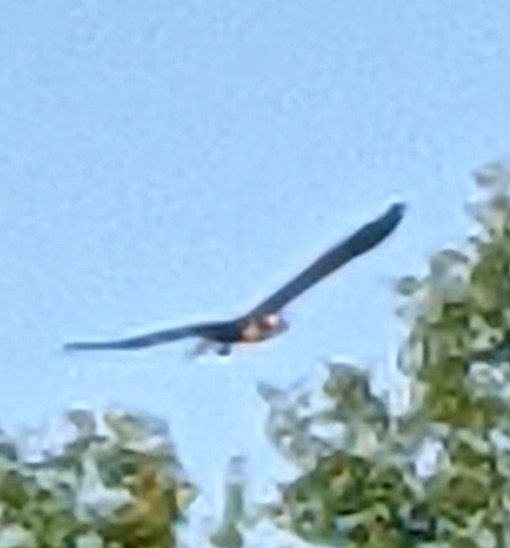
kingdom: Animalia
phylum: Chordata
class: Aves
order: Accipitriformes
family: Pandionidae
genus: Pandion
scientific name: Pandion haliaetus
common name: Osprey
